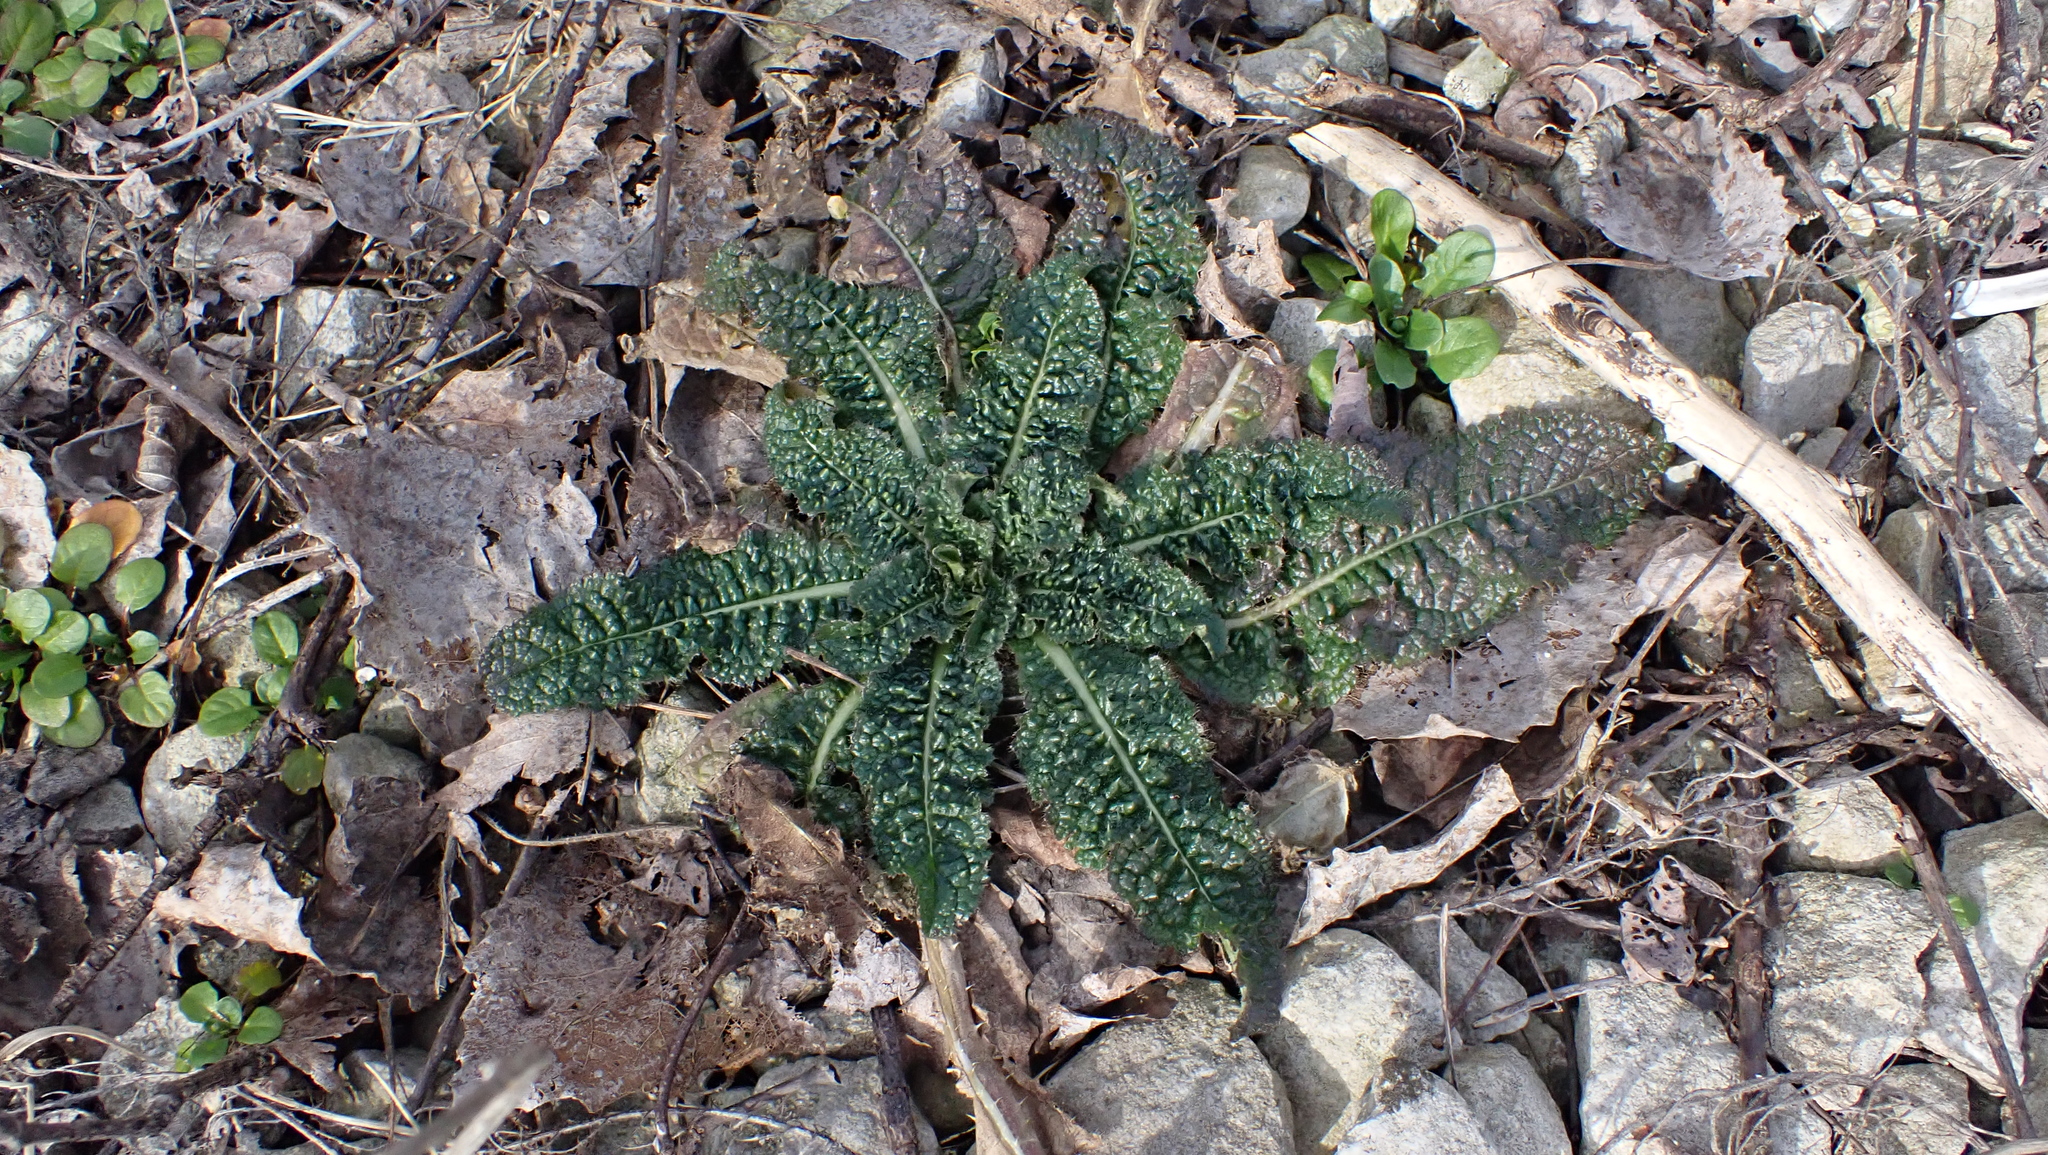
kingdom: Plantae
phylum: Tracheophyta
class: Magnoliopsida
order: Dipsacales
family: Caprifoliaceae
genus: Dipsacus
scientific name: Dipsacus fullonum
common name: Teasel
